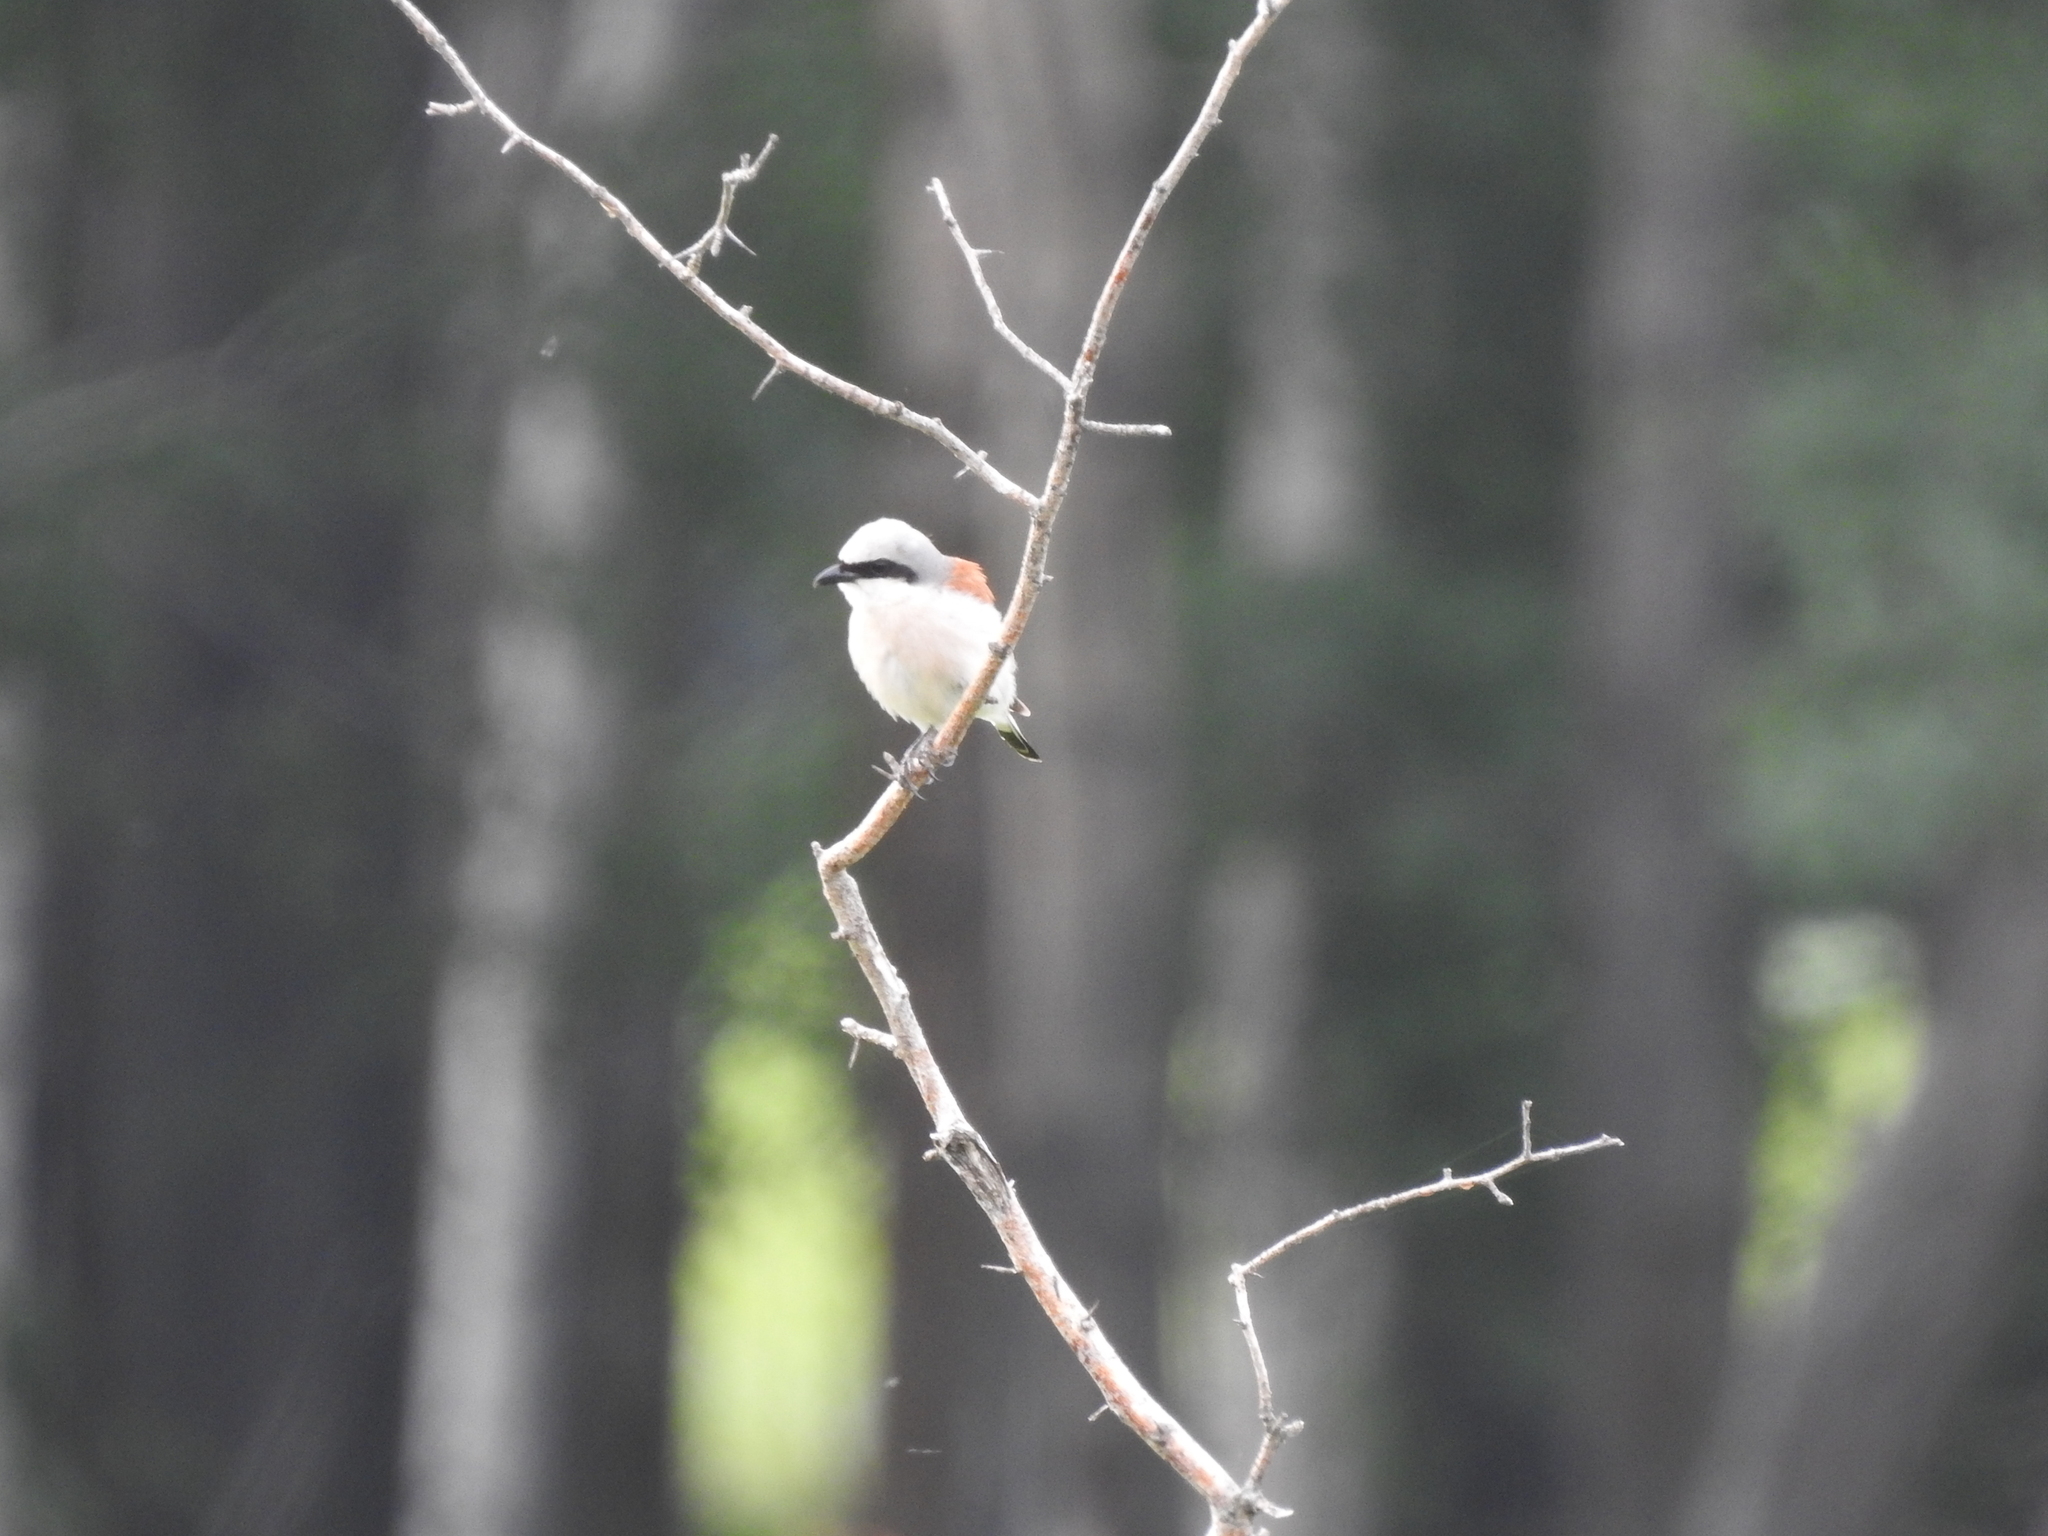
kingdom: Animalia
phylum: Chordata
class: Aves
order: Passeriformes
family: Laniidae
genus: Lanius
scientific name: Lanius collurio
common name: Red-backed shrike
